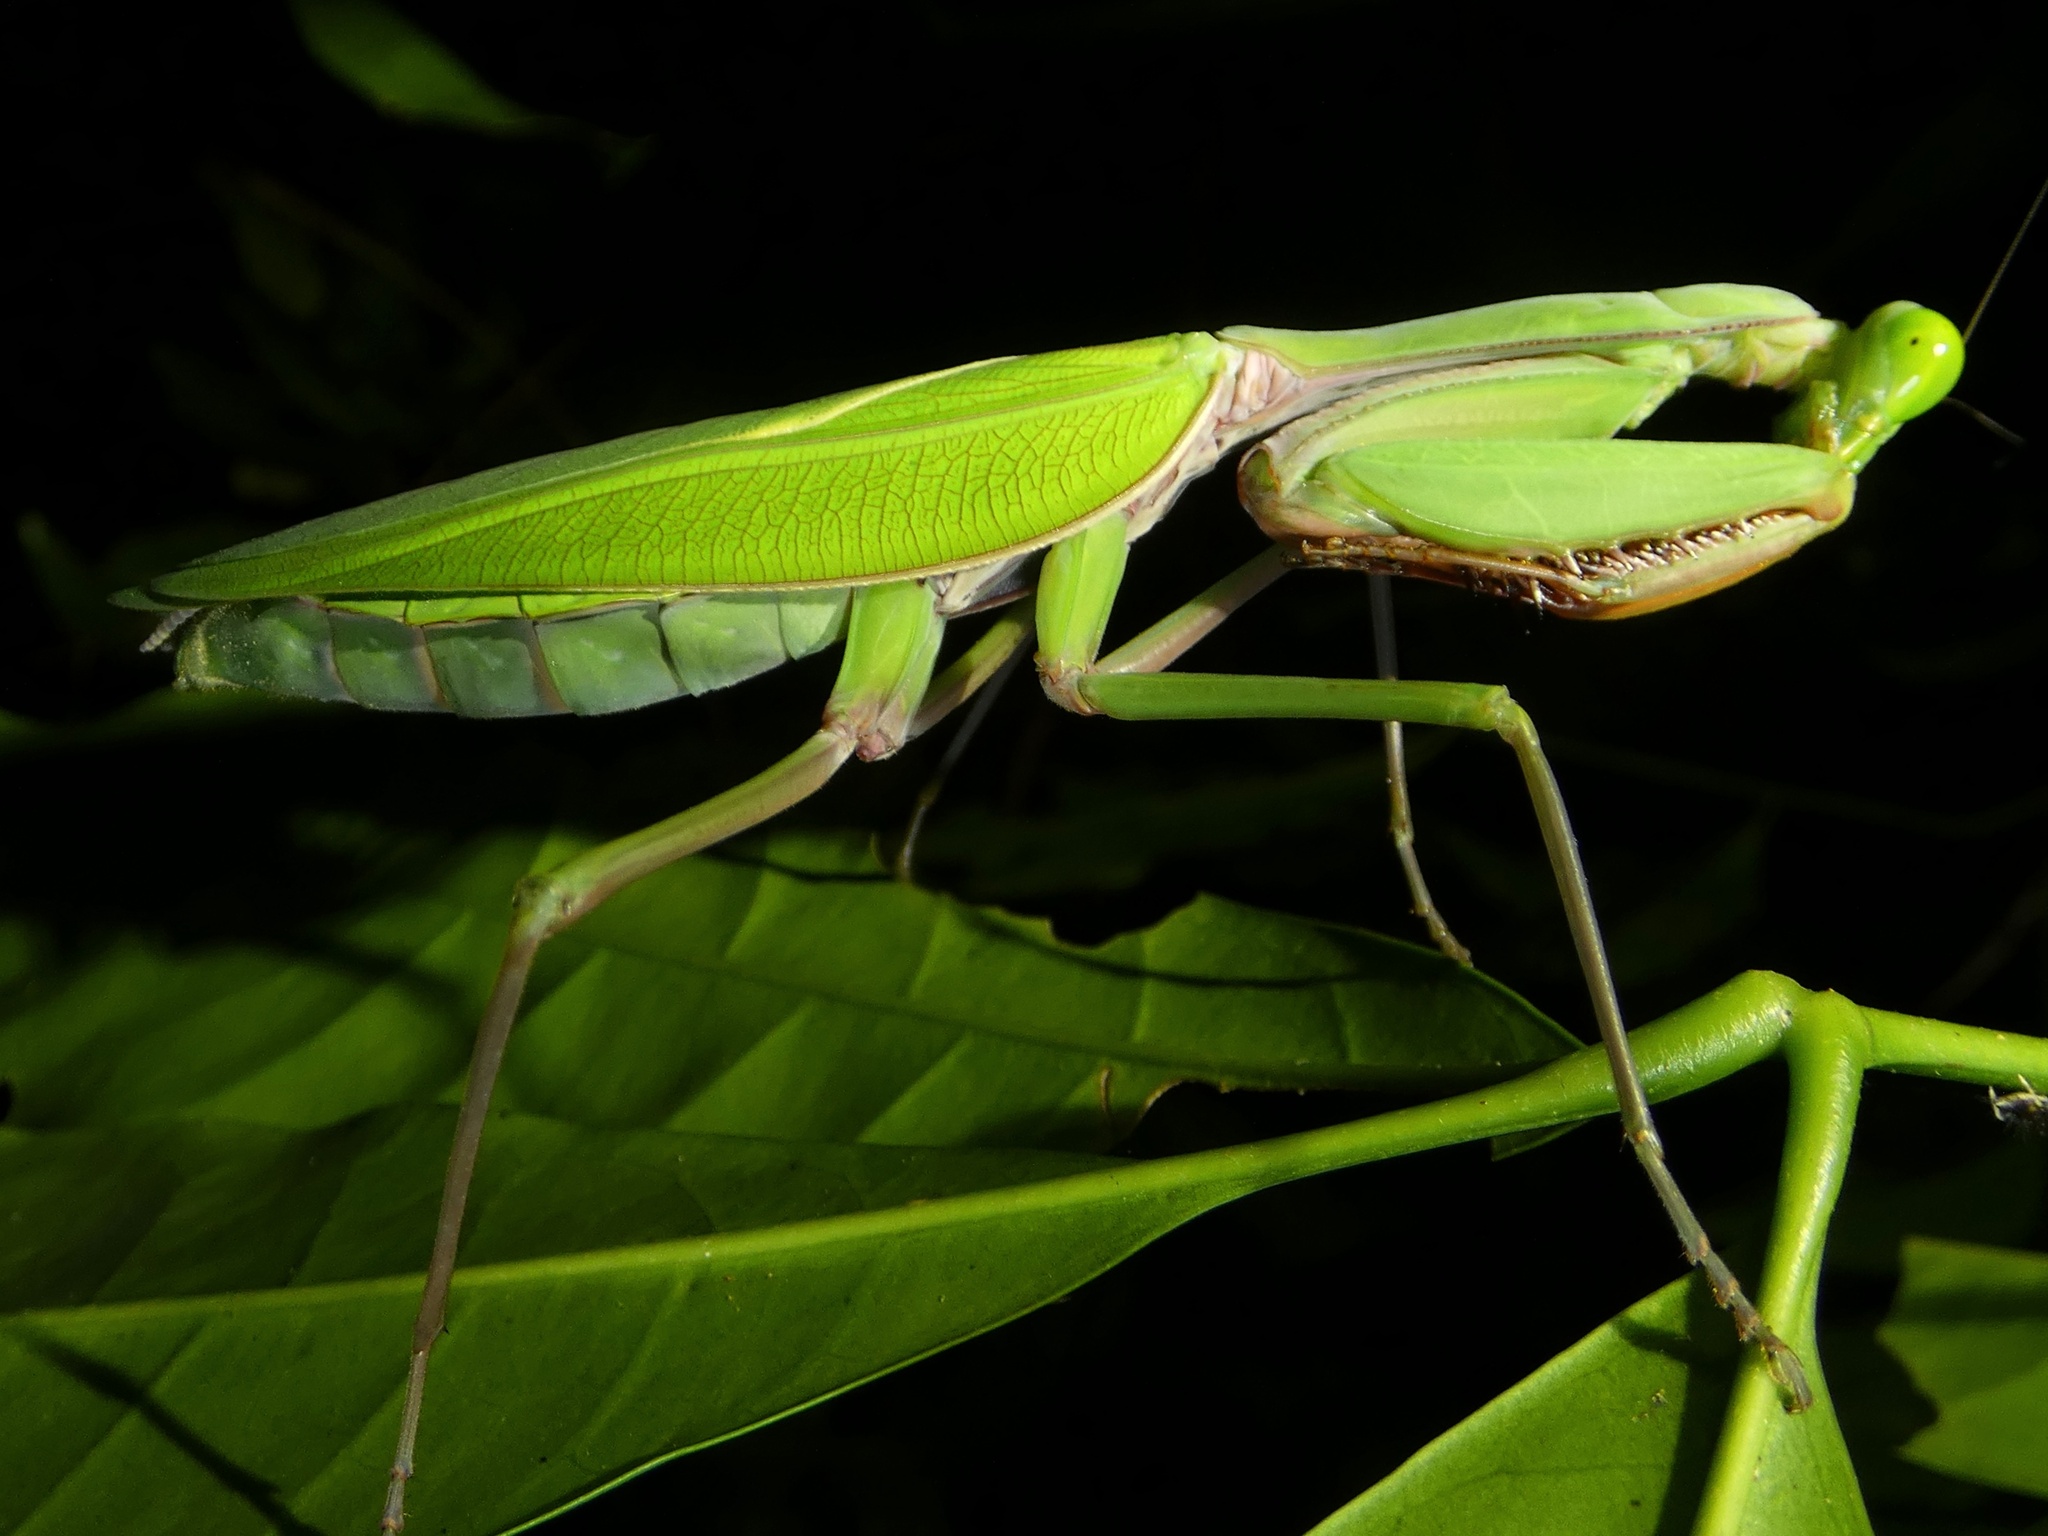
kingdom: Animalia
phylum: Arthropoda
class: Insecta
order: Mantodea
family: Mantidae
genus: Hierodula
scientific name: Hierodula majuscula
